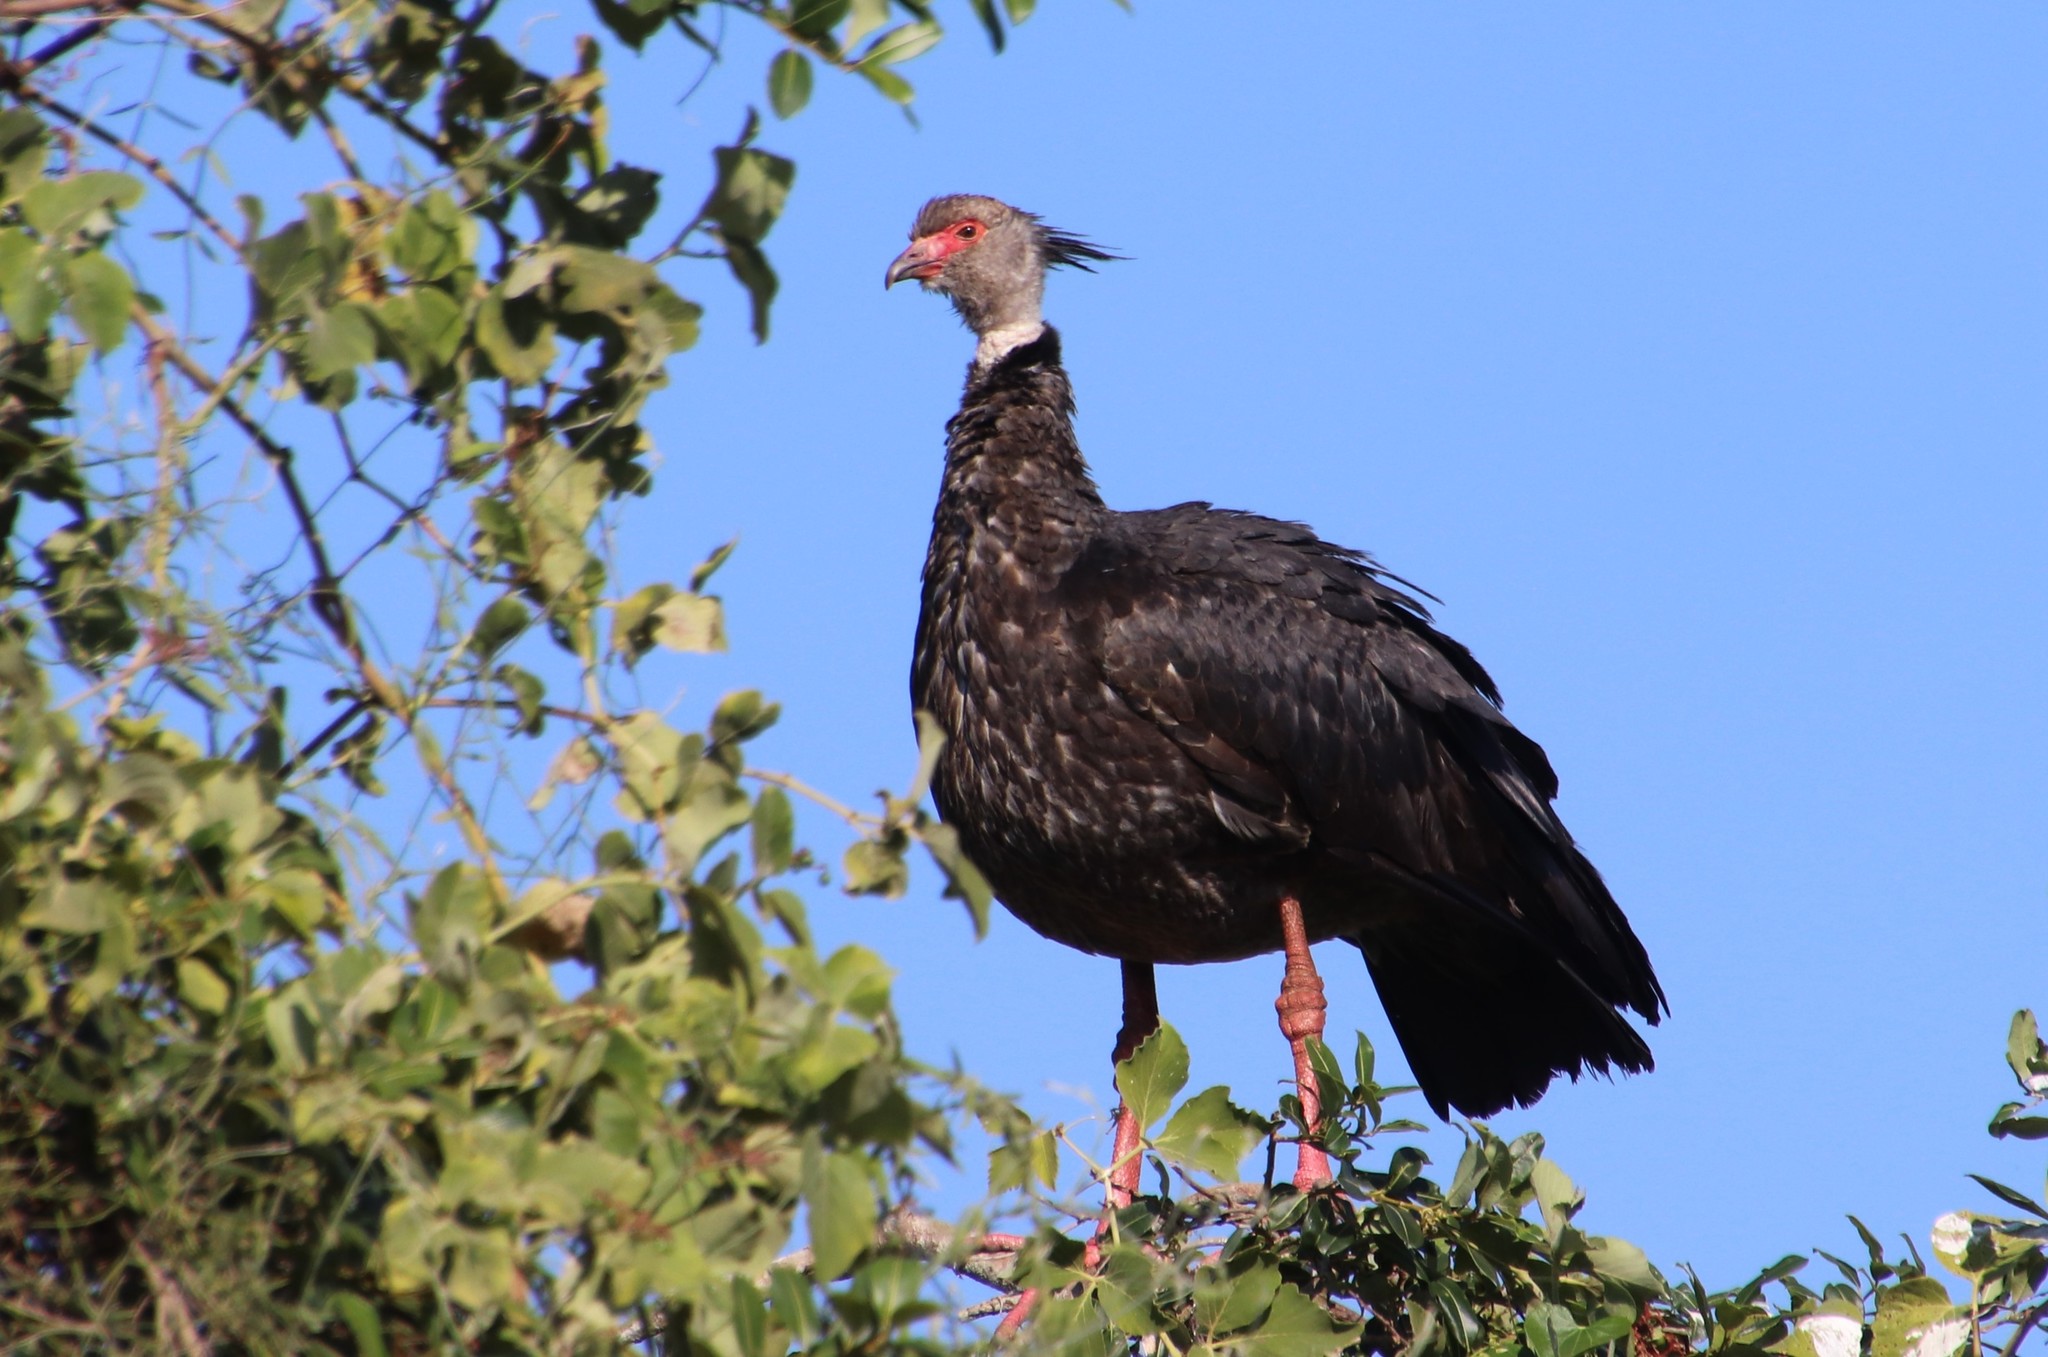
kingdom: Animalia
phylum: Chordata
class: Aves
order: Anseriformes
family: Anhimidae
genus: Chauna
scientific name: Chauna torquata
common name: Southern screamer
